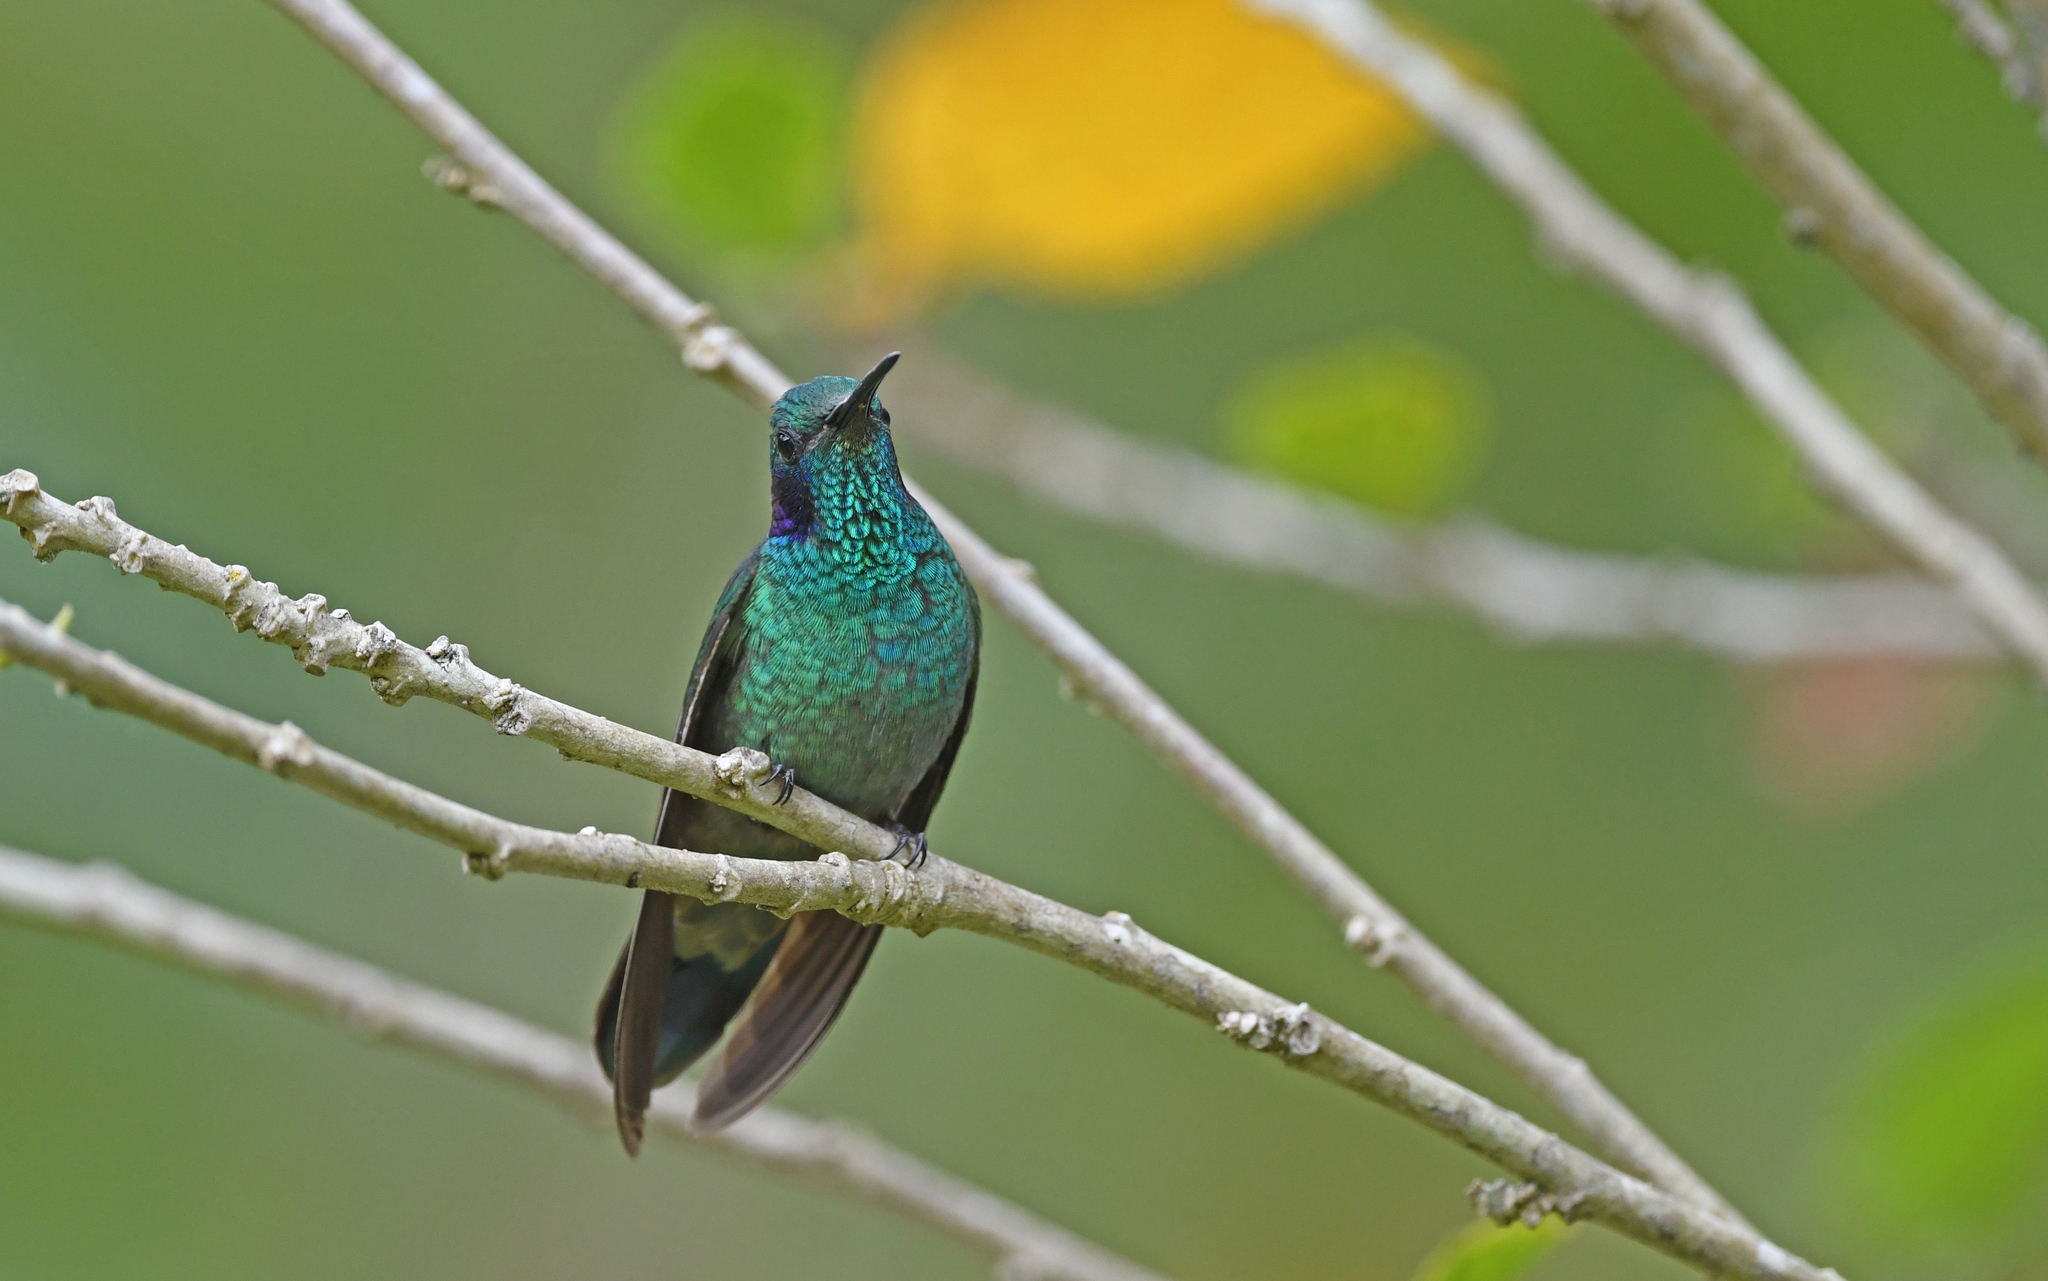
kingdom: Animalia
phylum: Chordata
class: Aves
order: Apodiformes
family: Trochilidae
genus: Colibri
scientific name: Colibri cyanotus
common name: Lesser violetear
